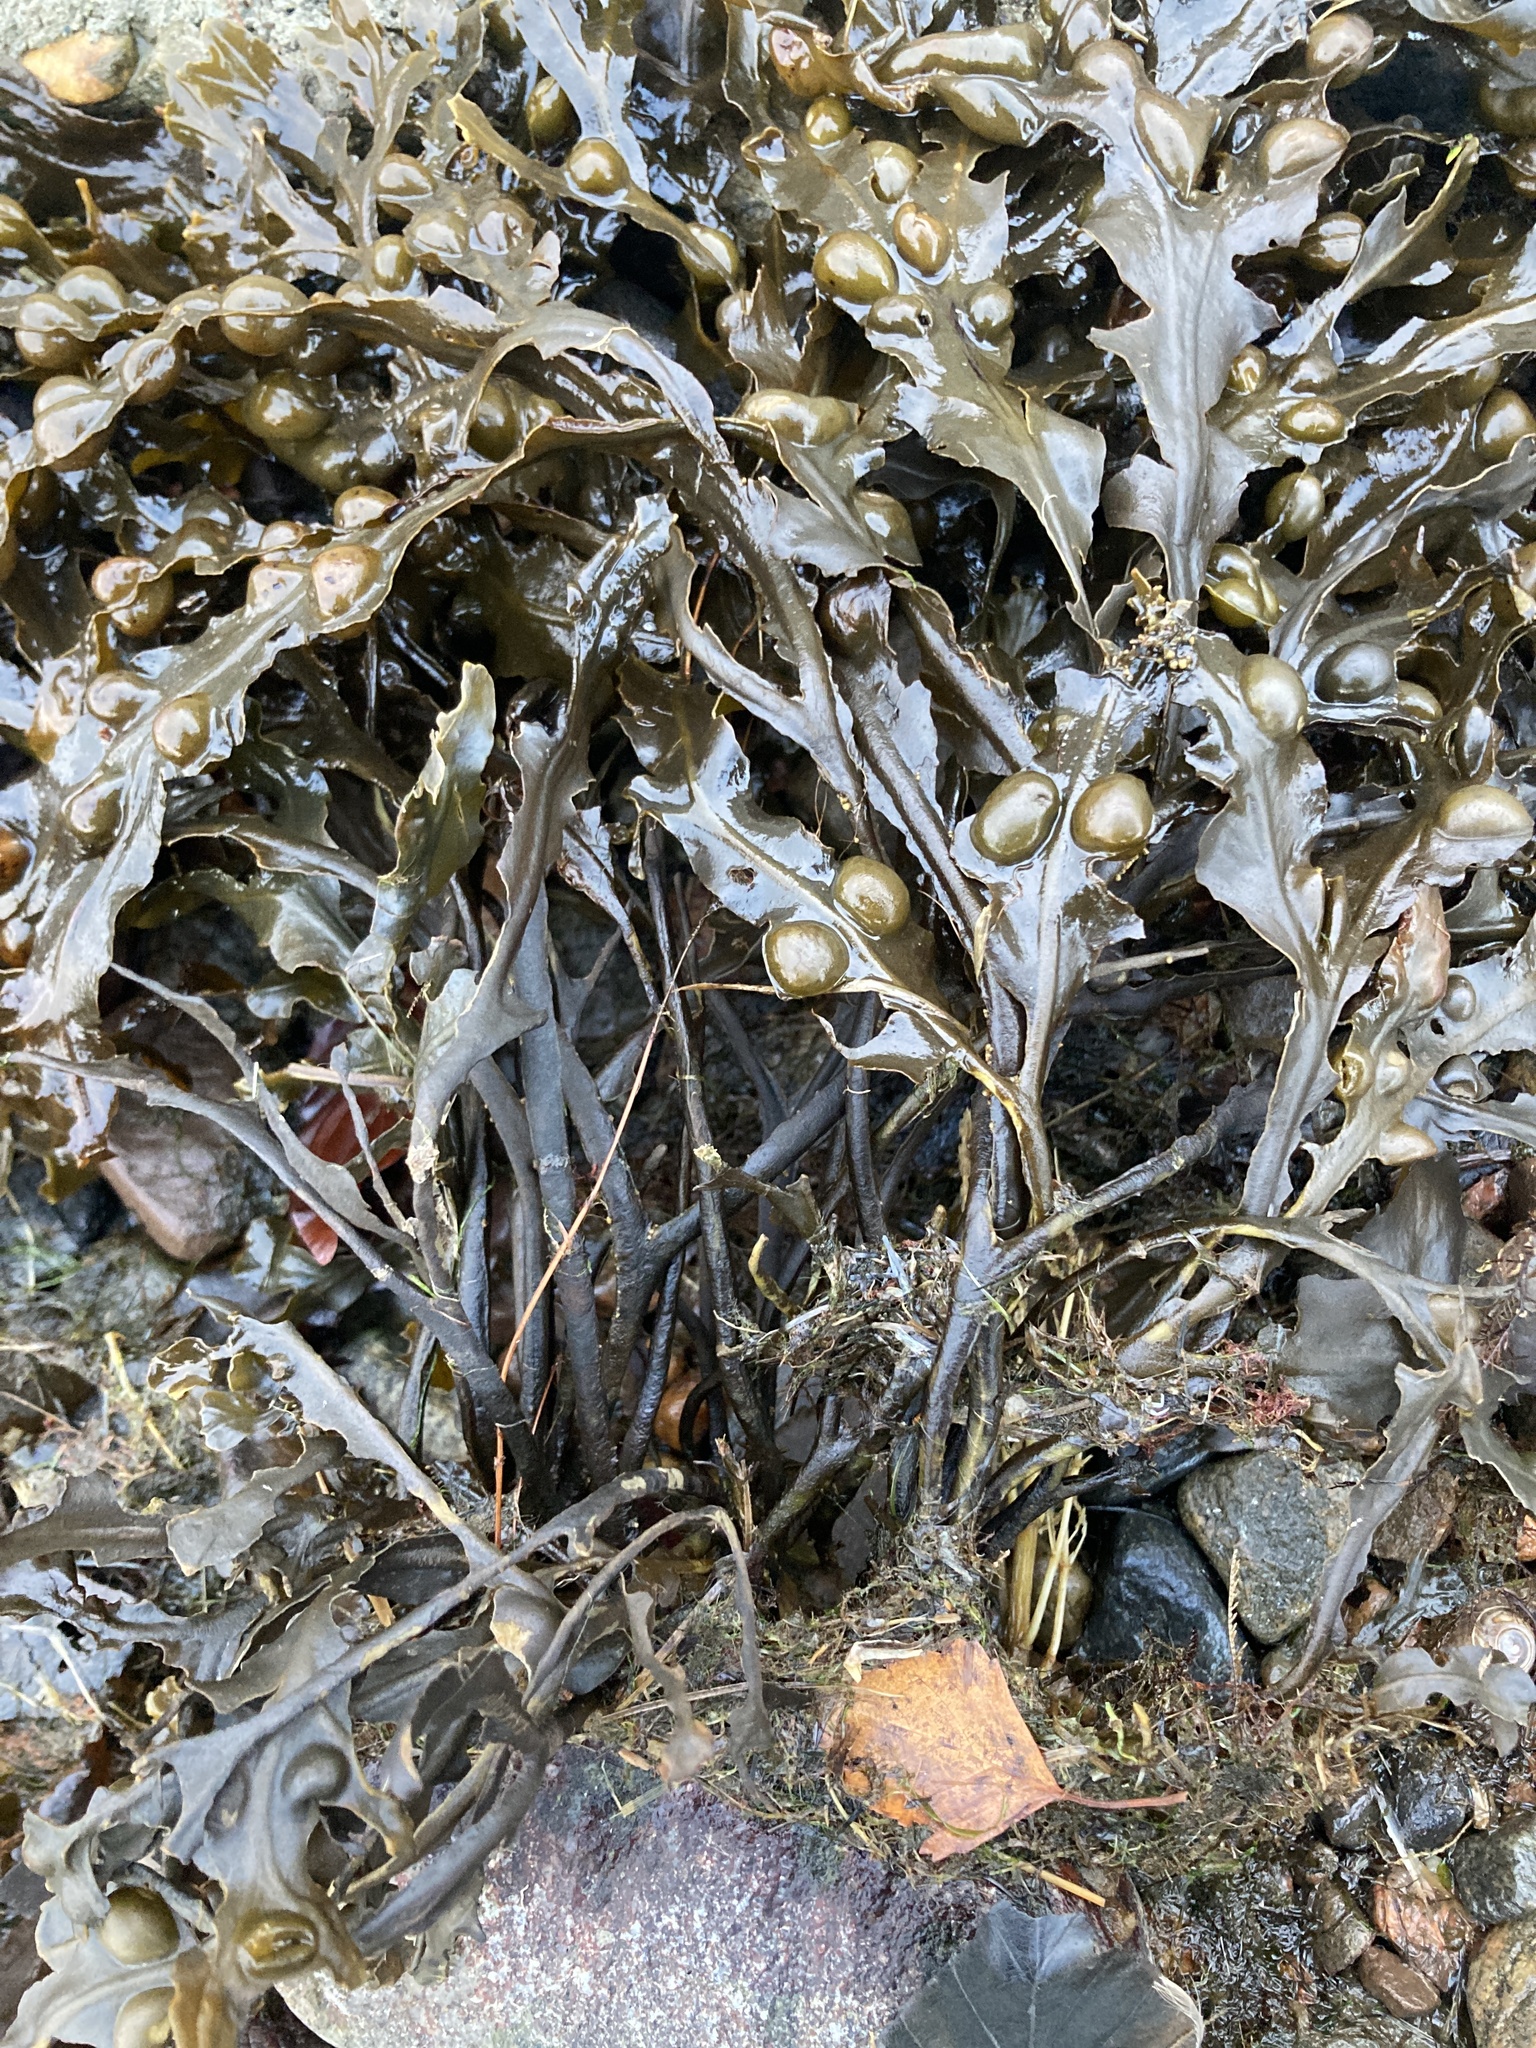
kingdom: Chromista
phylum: Ochrophyta
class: Phaeophyceae
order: Fucales
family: Fucaceae
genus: Fucus
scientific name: Fucus vesiculosus
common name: Bladder wrack
